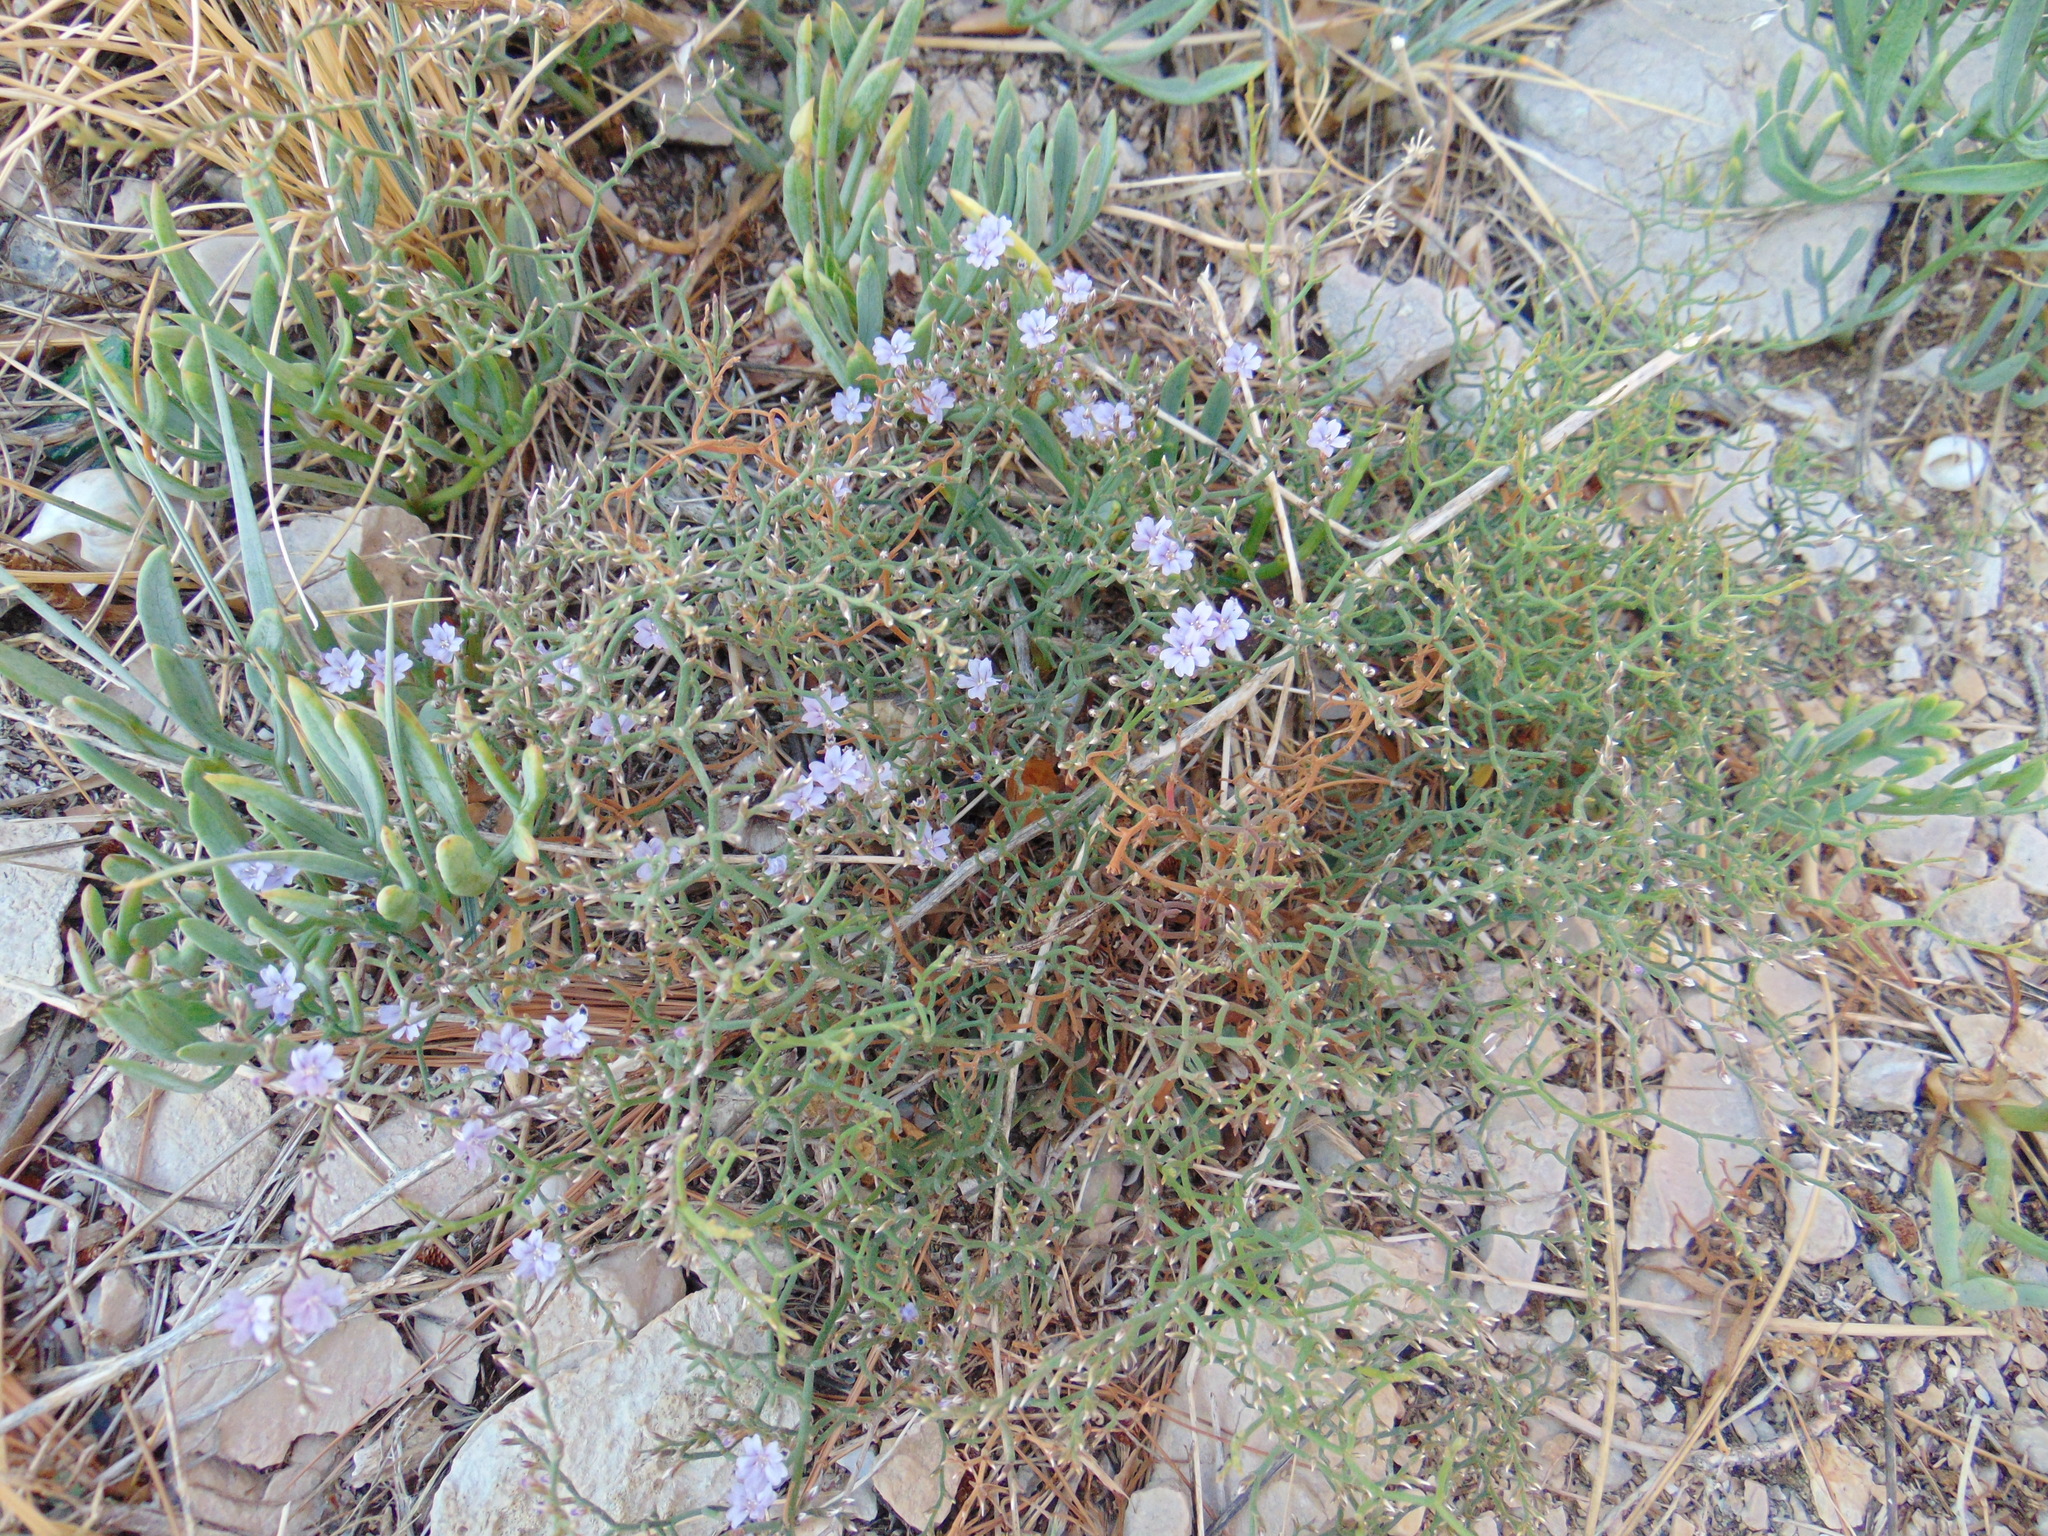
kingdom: Plantae
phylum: Tracheophyta
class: Magnoliopsida
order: Caryophyllales
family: Plumbaginaceae
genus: Limonium
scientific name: Limonium cancellatum
